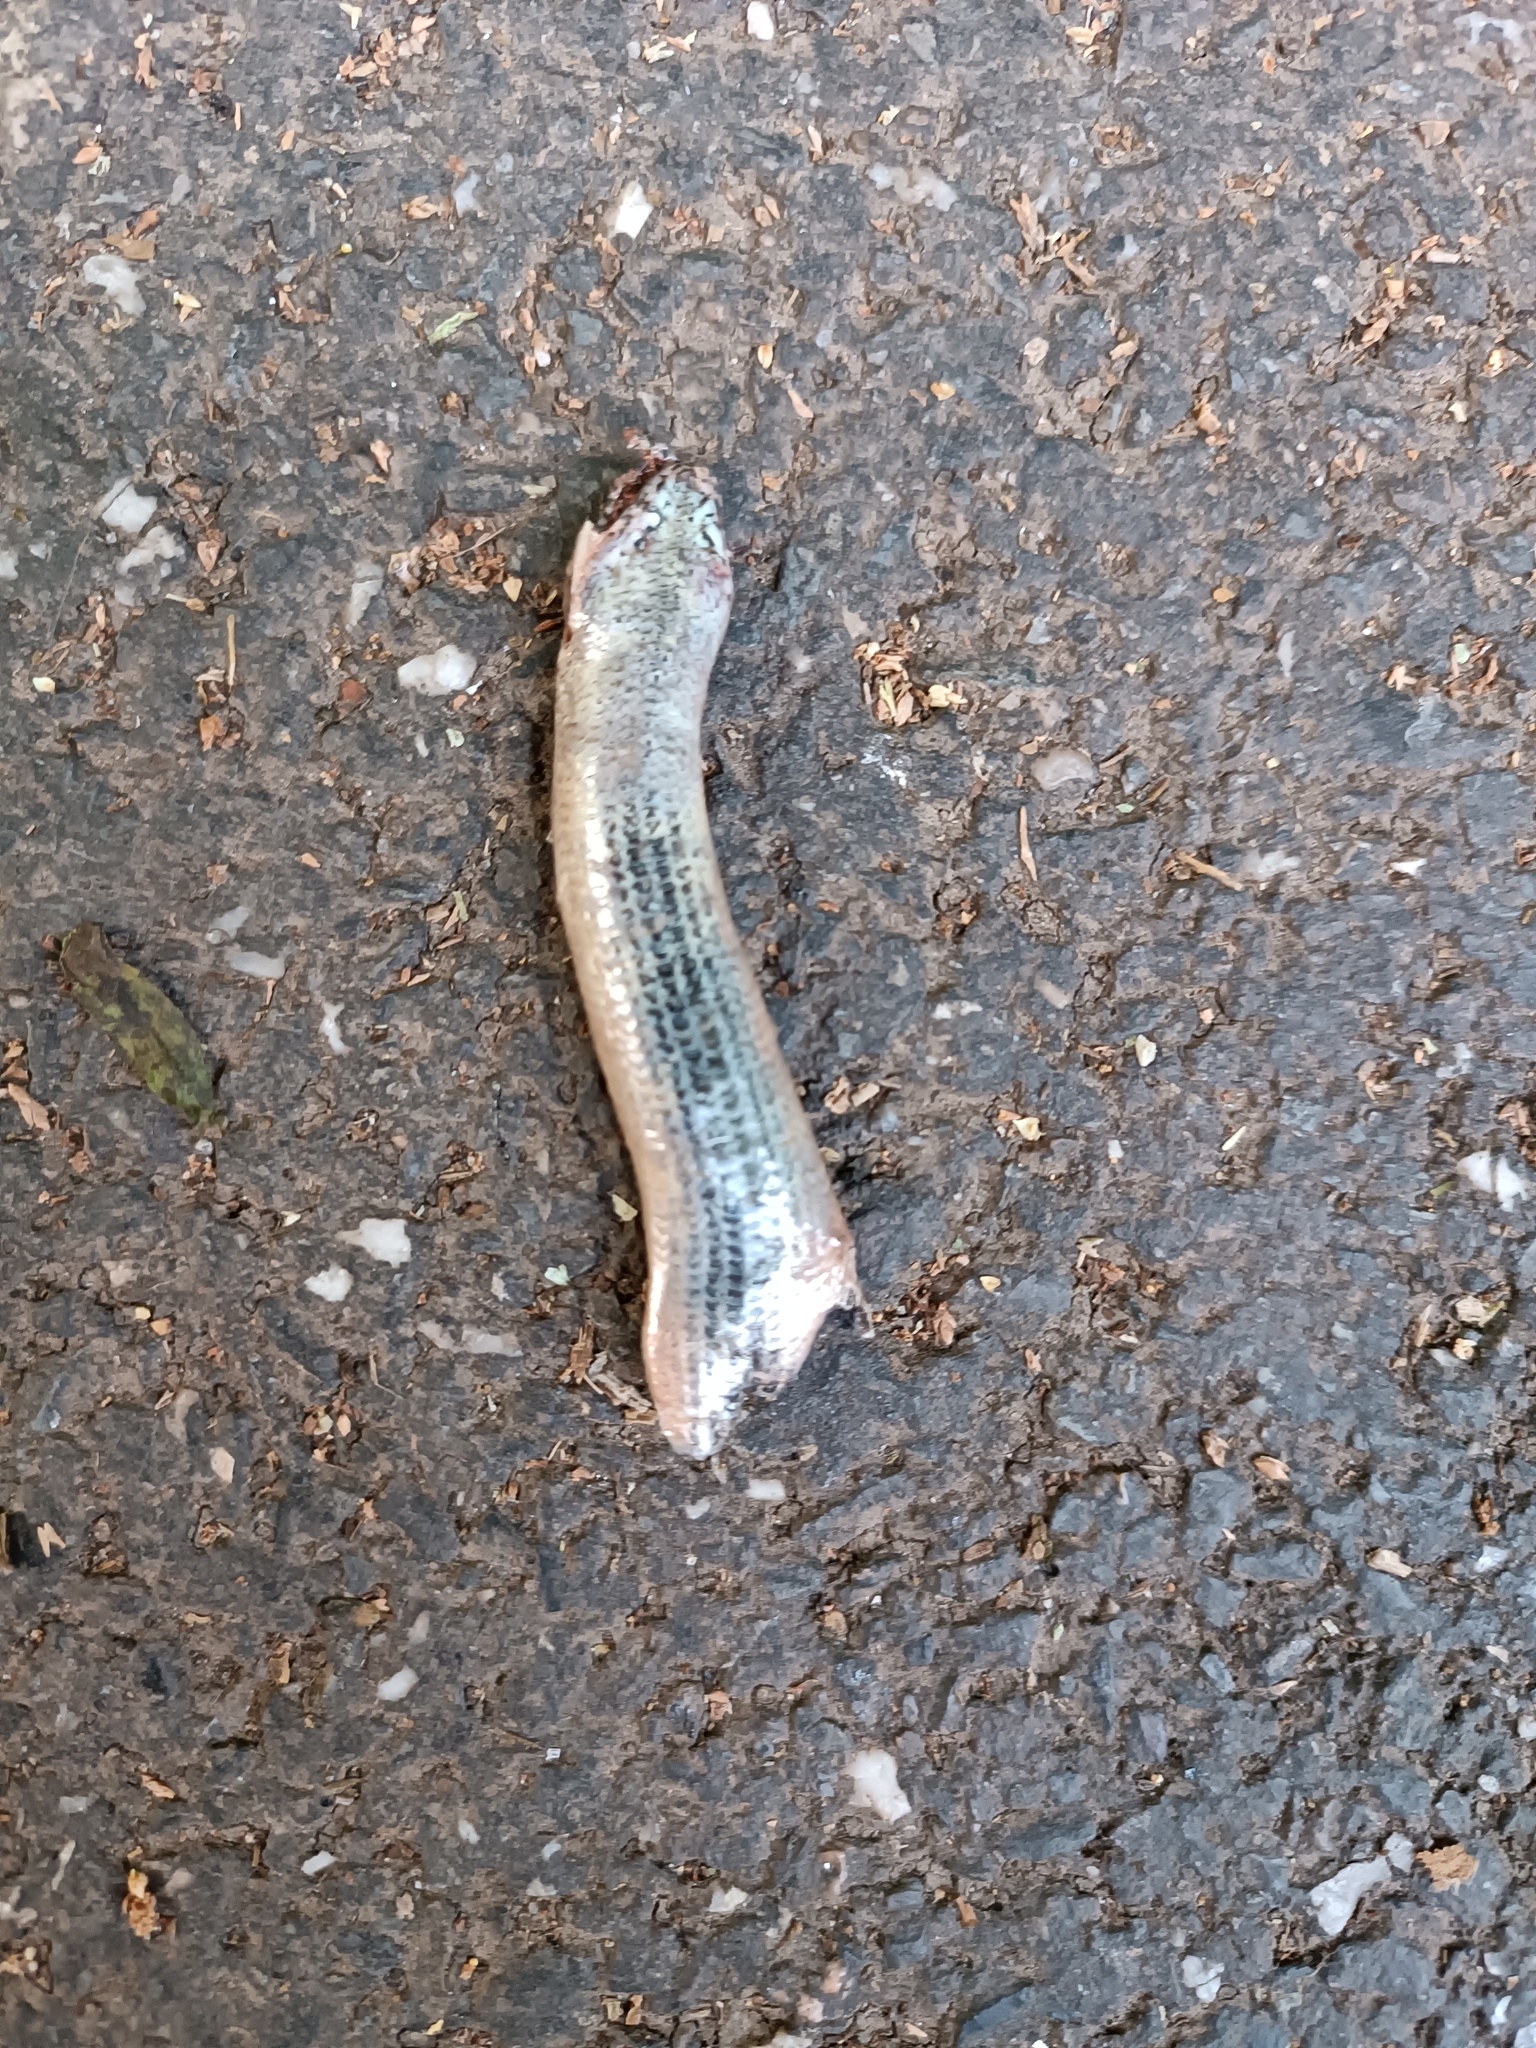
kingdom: Animalia
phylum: Chordata
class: Squamata
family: Anguidae
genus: Anguis
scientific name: Anguis fragilis
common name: Slow worm
